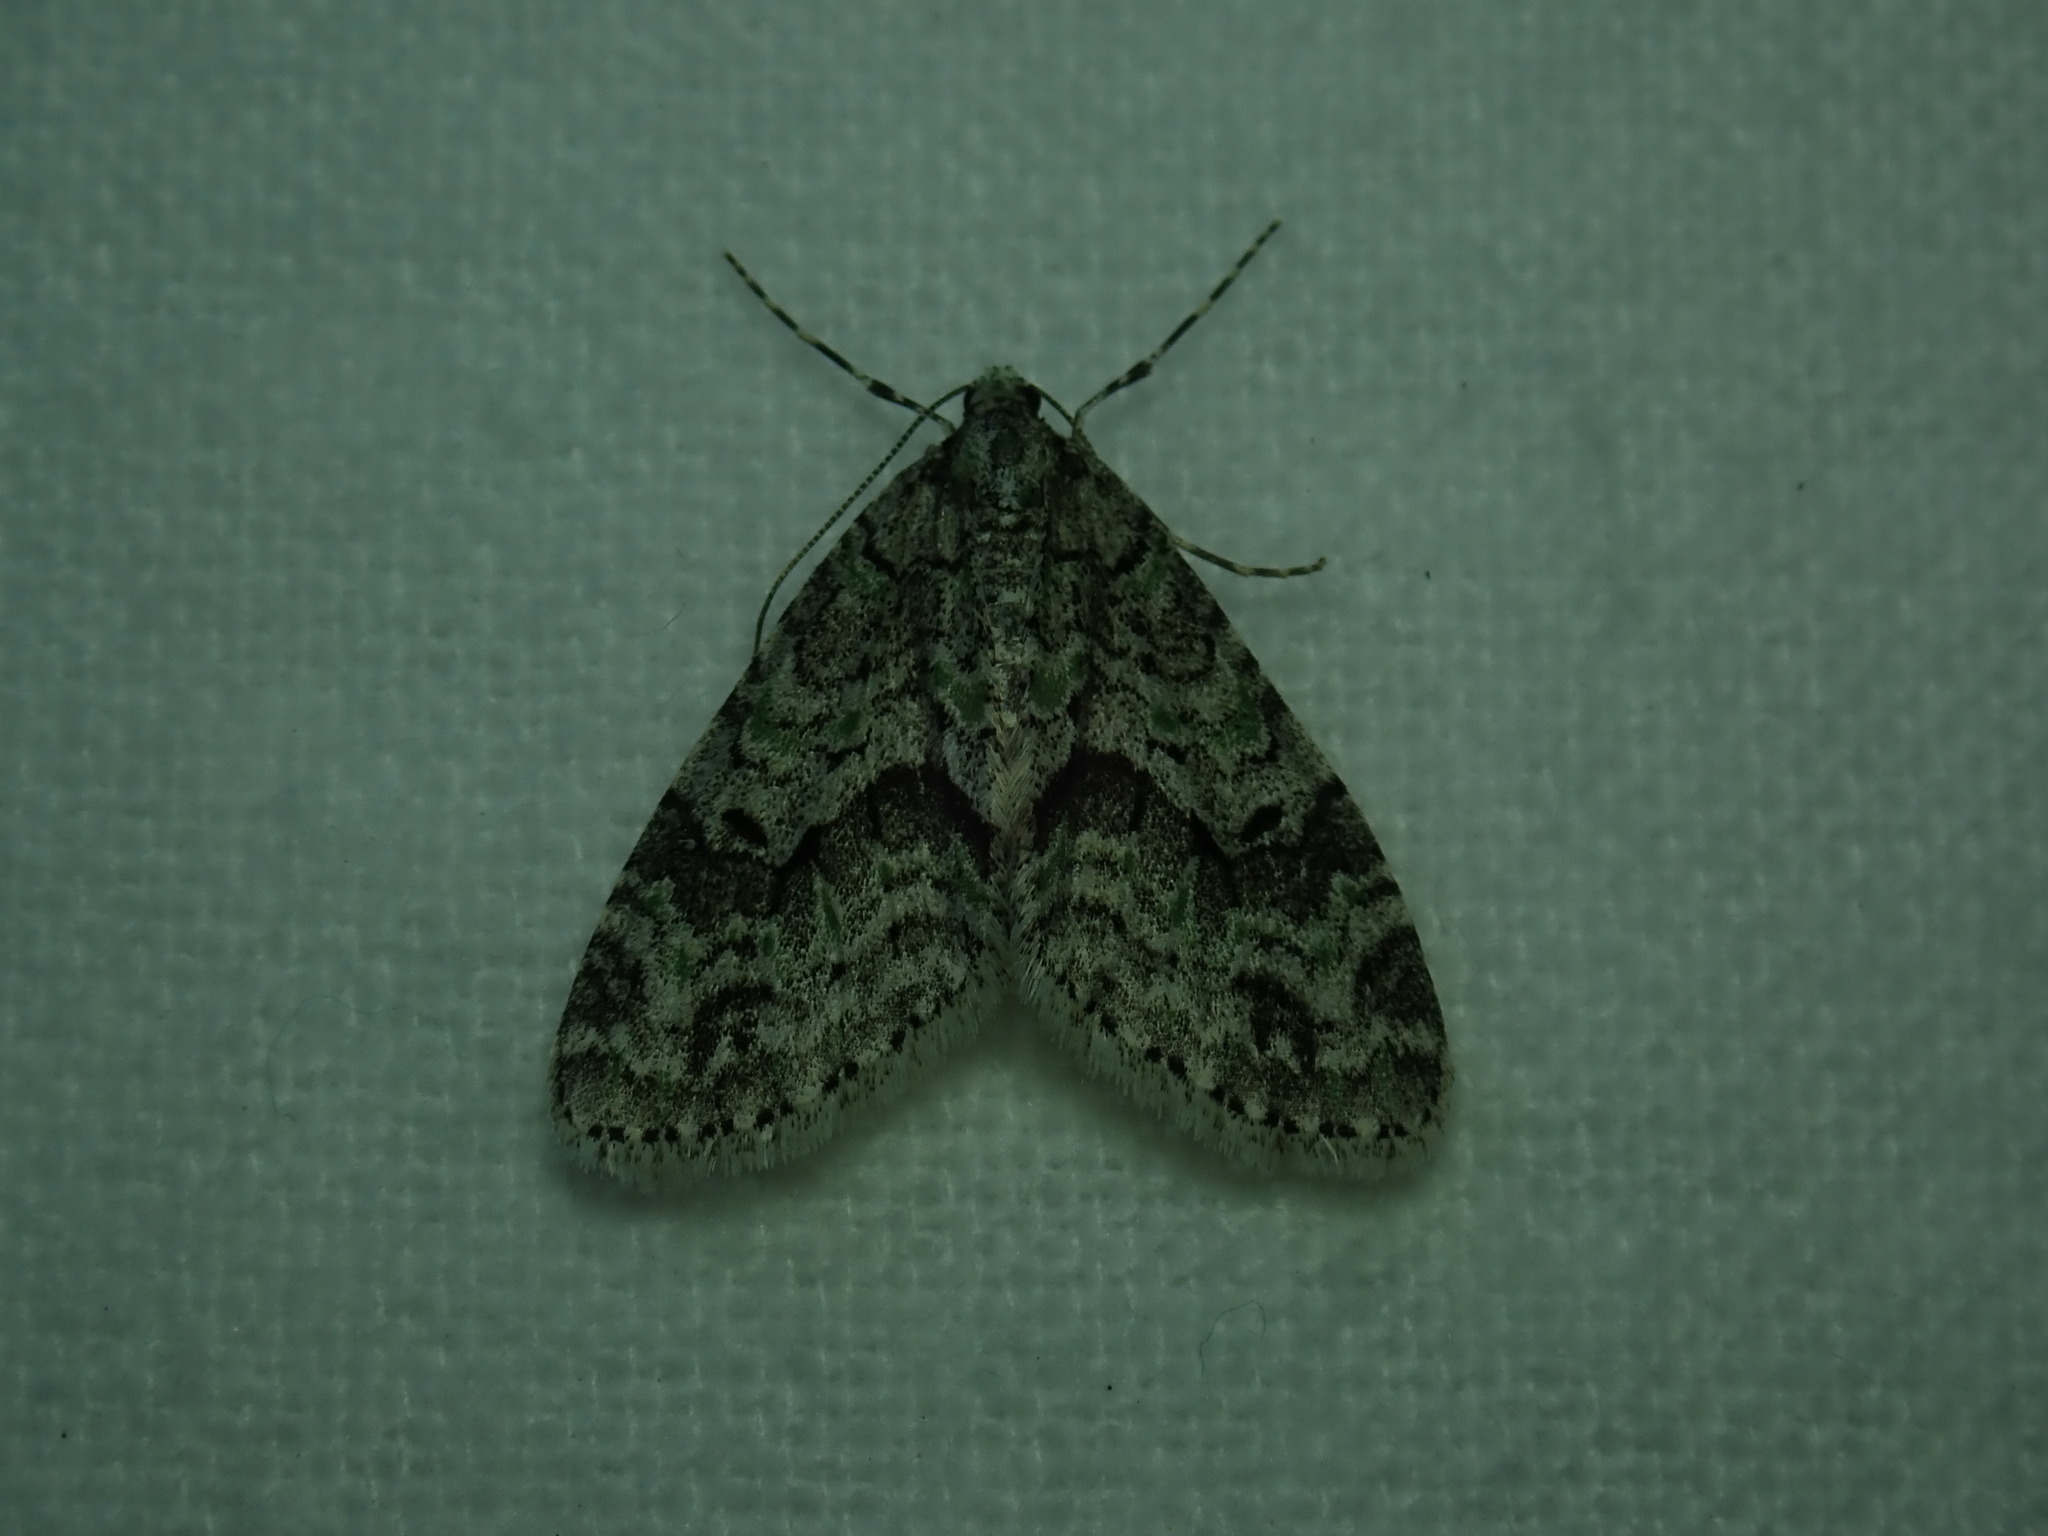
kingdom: Animalia
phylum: Arthropoda
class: Insecta
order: Lepidoptera
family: Geometridae
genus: Cladara
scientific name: Cladara limitaria
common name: Mottled gray carpet
